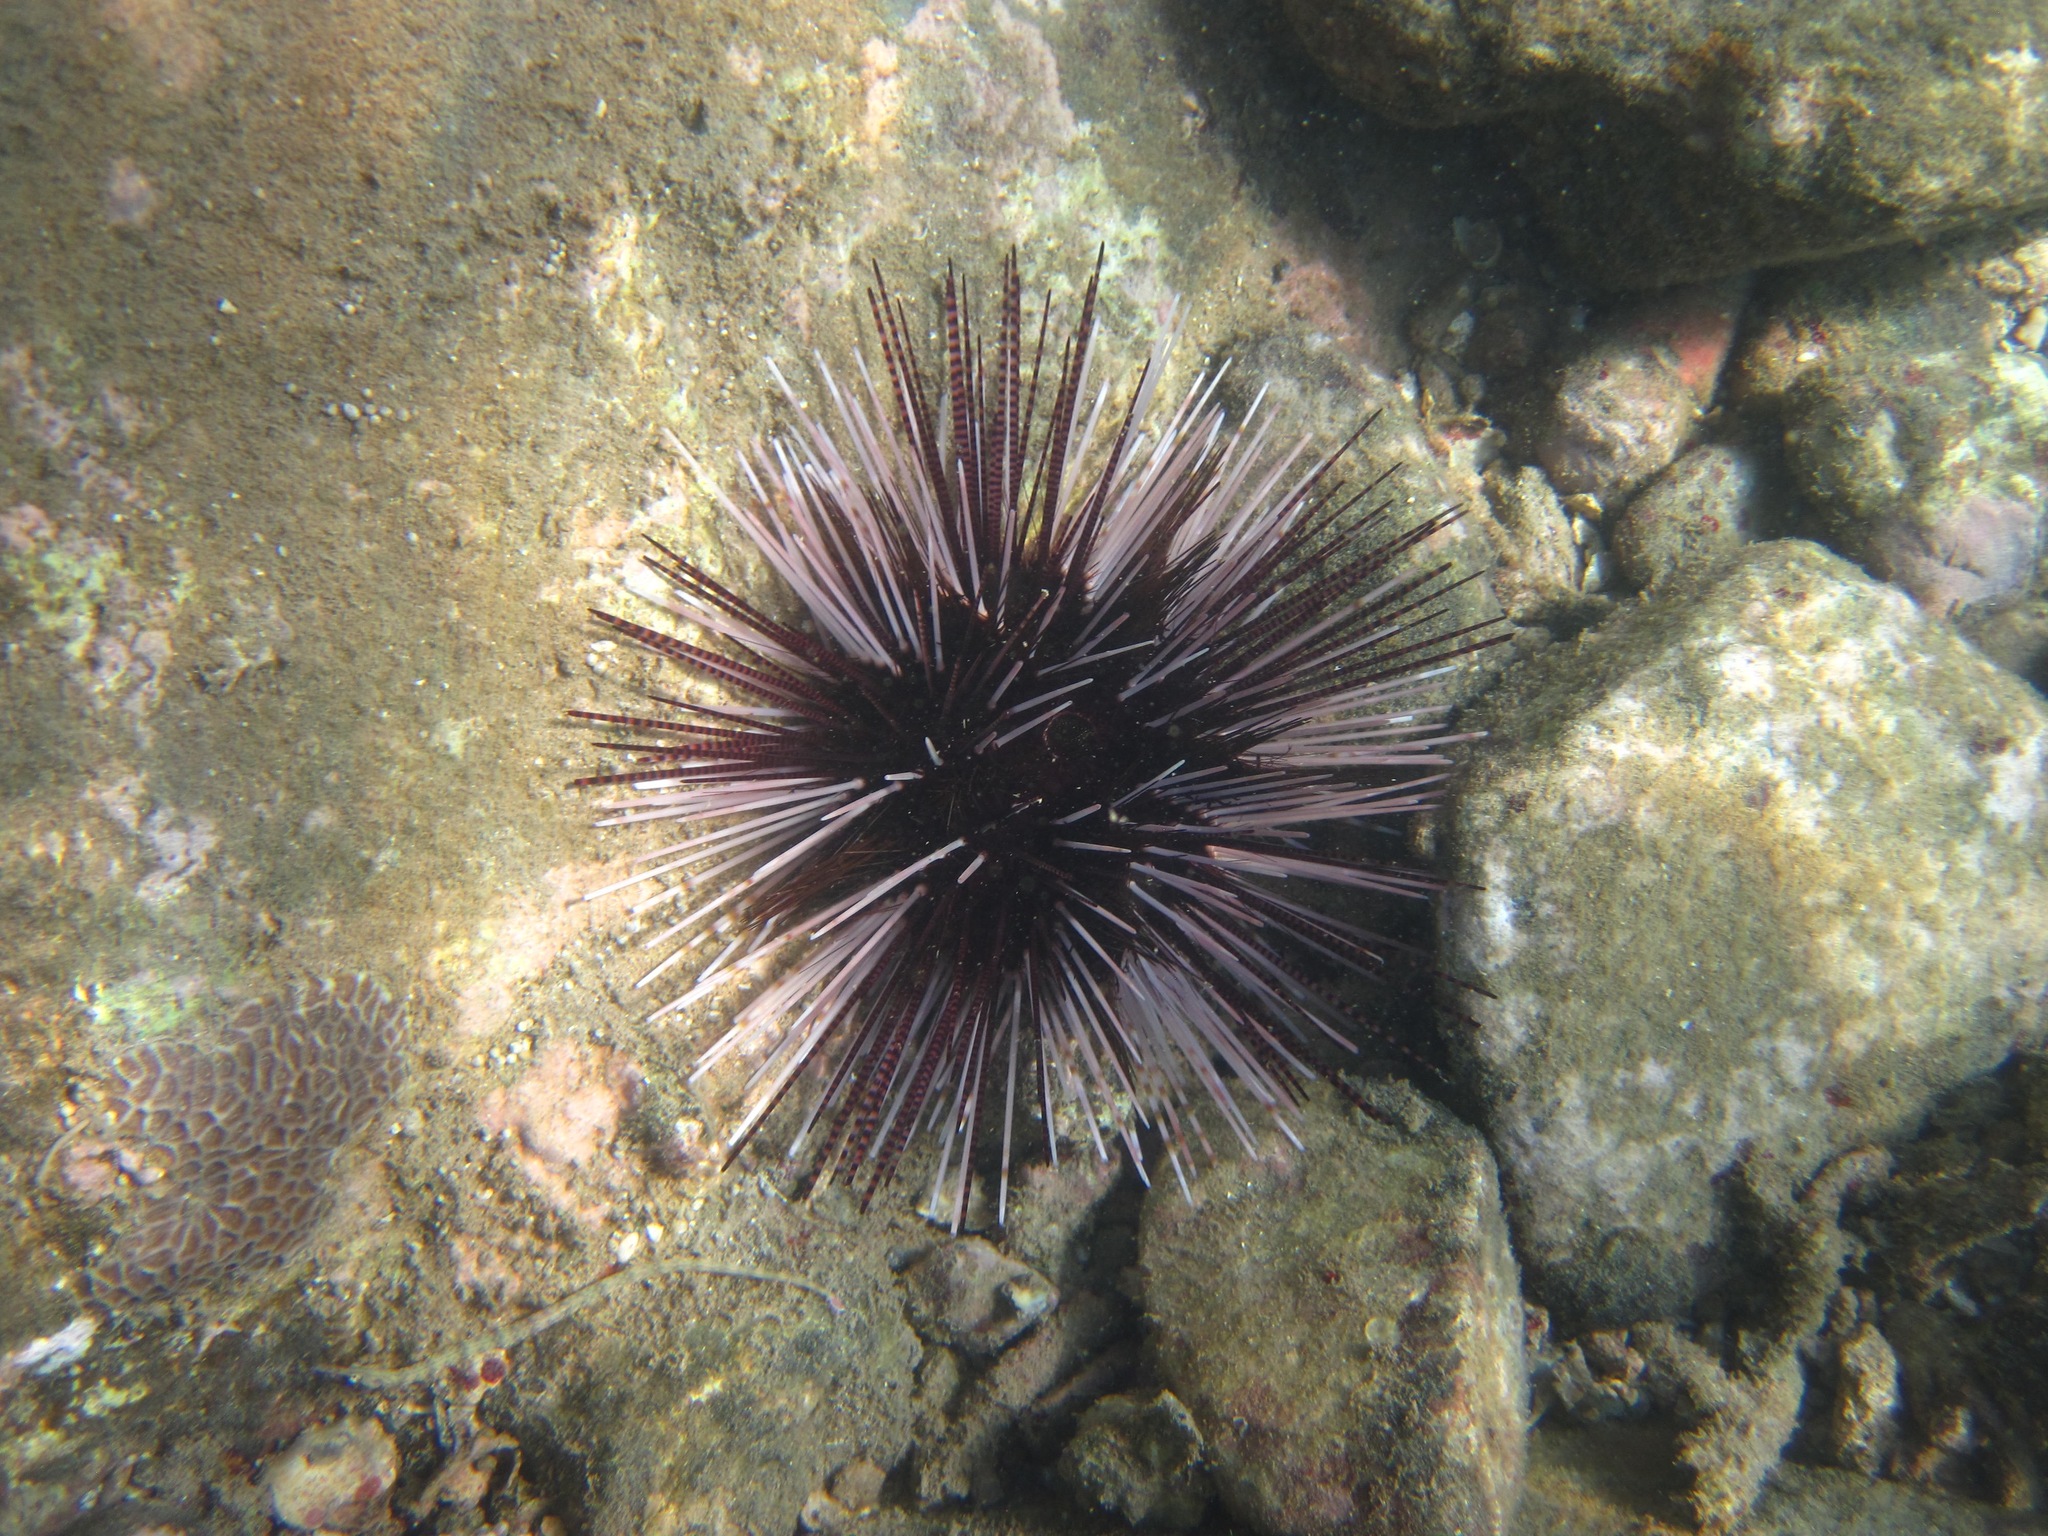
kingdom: Animalia
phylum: Echinodermata
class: Echinoidea
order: Diadematoida
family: Diadematidae
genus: Echinothrix
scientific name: Echinothrix calamaris
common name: Banded sea urchin
